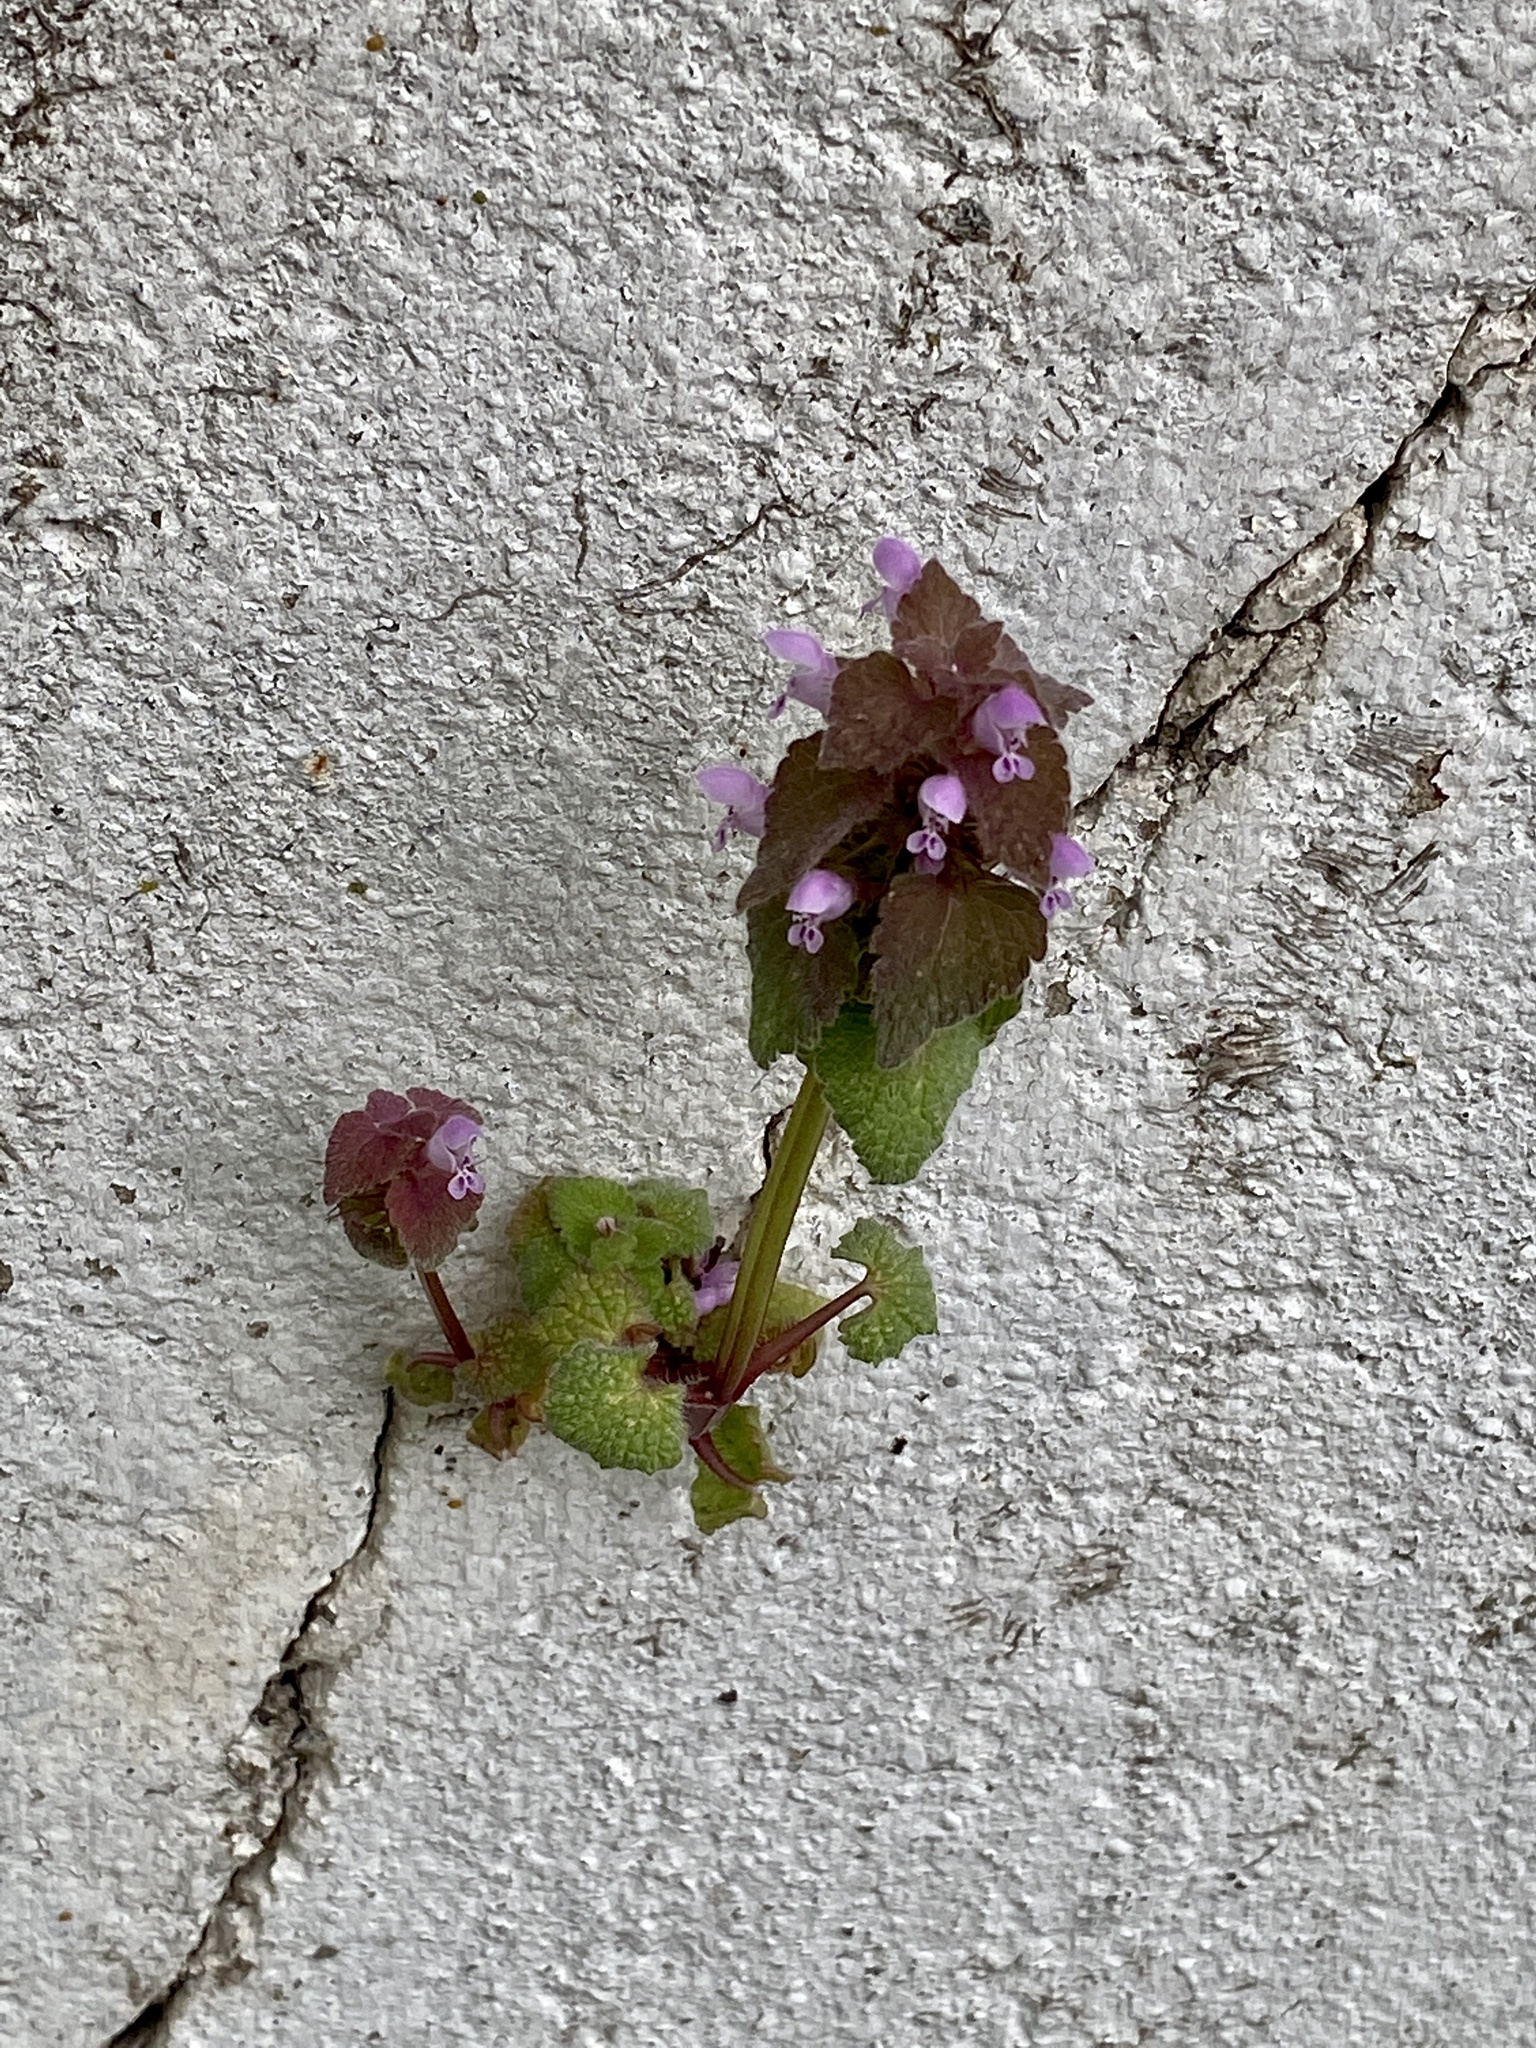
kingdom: Plantae
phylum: Tracheophyta
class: Magnoliopsida
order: Lamiales
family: Lamiaceae
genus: Lamium
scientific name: Lamium purpureum
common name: Red dead-nettle
